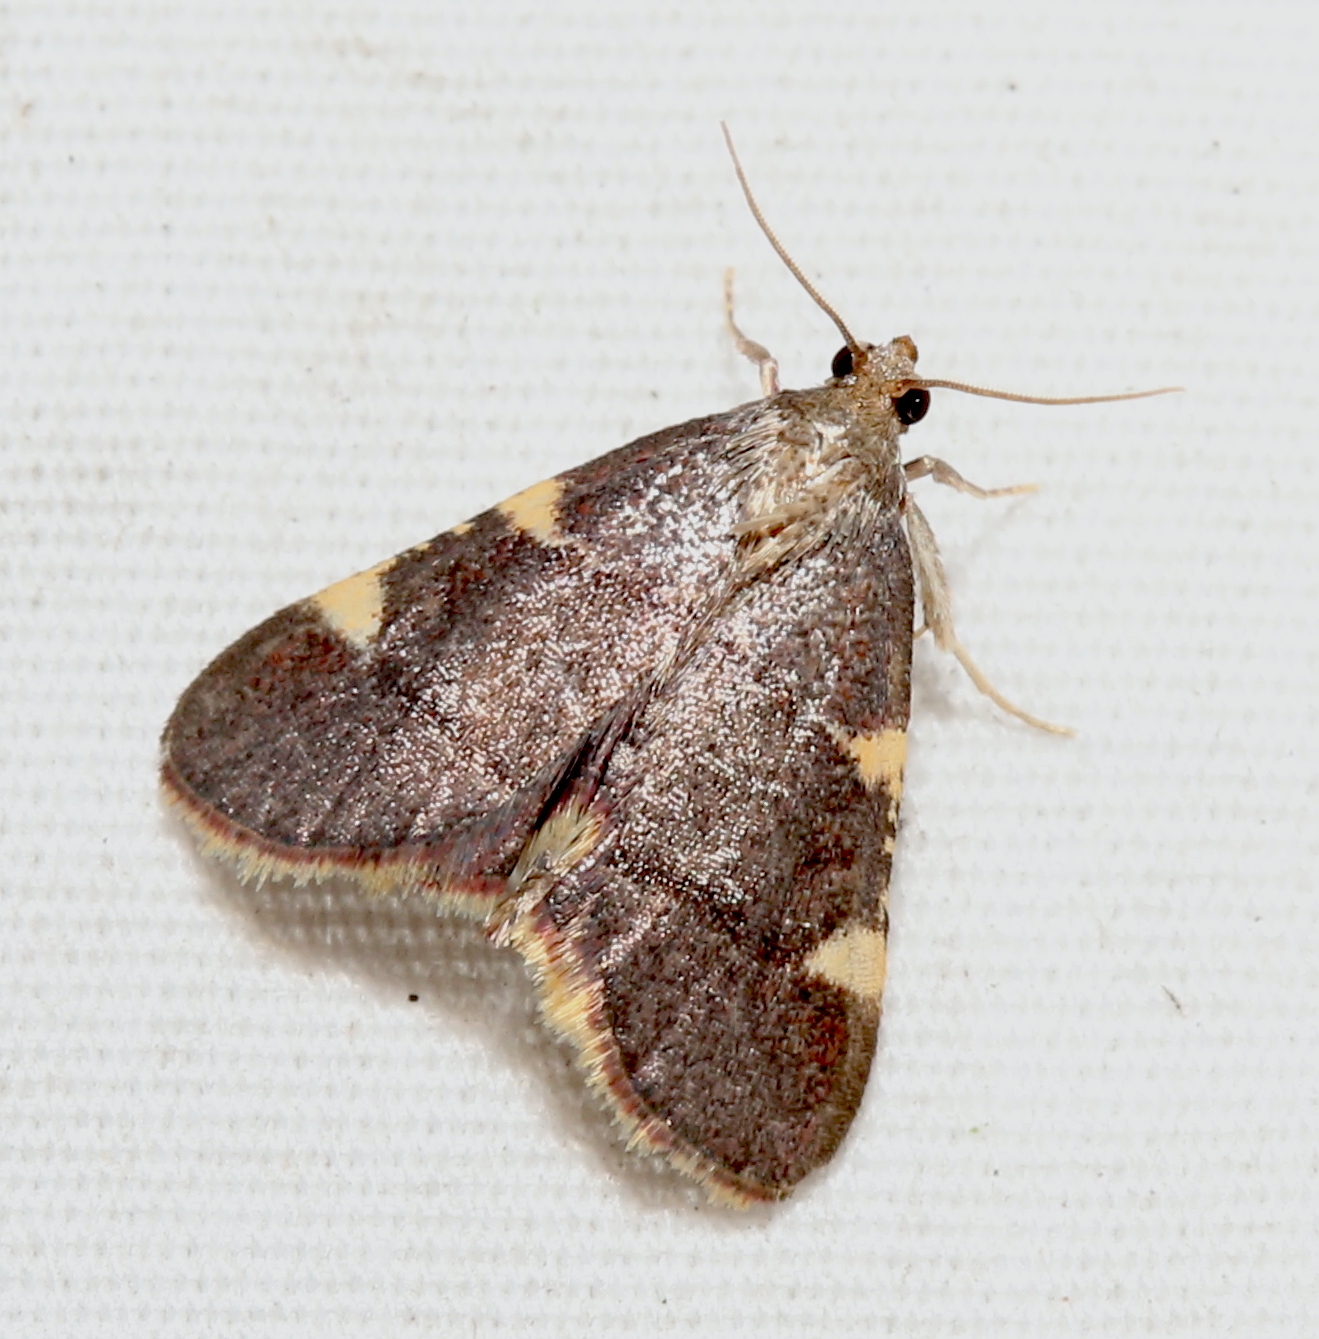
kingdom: Animalia
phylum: Arthropoda
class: Insecta
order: Lepidoptera
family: Pyralidae
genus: Hypsopygia
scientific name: Hypsopygia olinalis
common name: Yellow-fringed dolichomia moth
